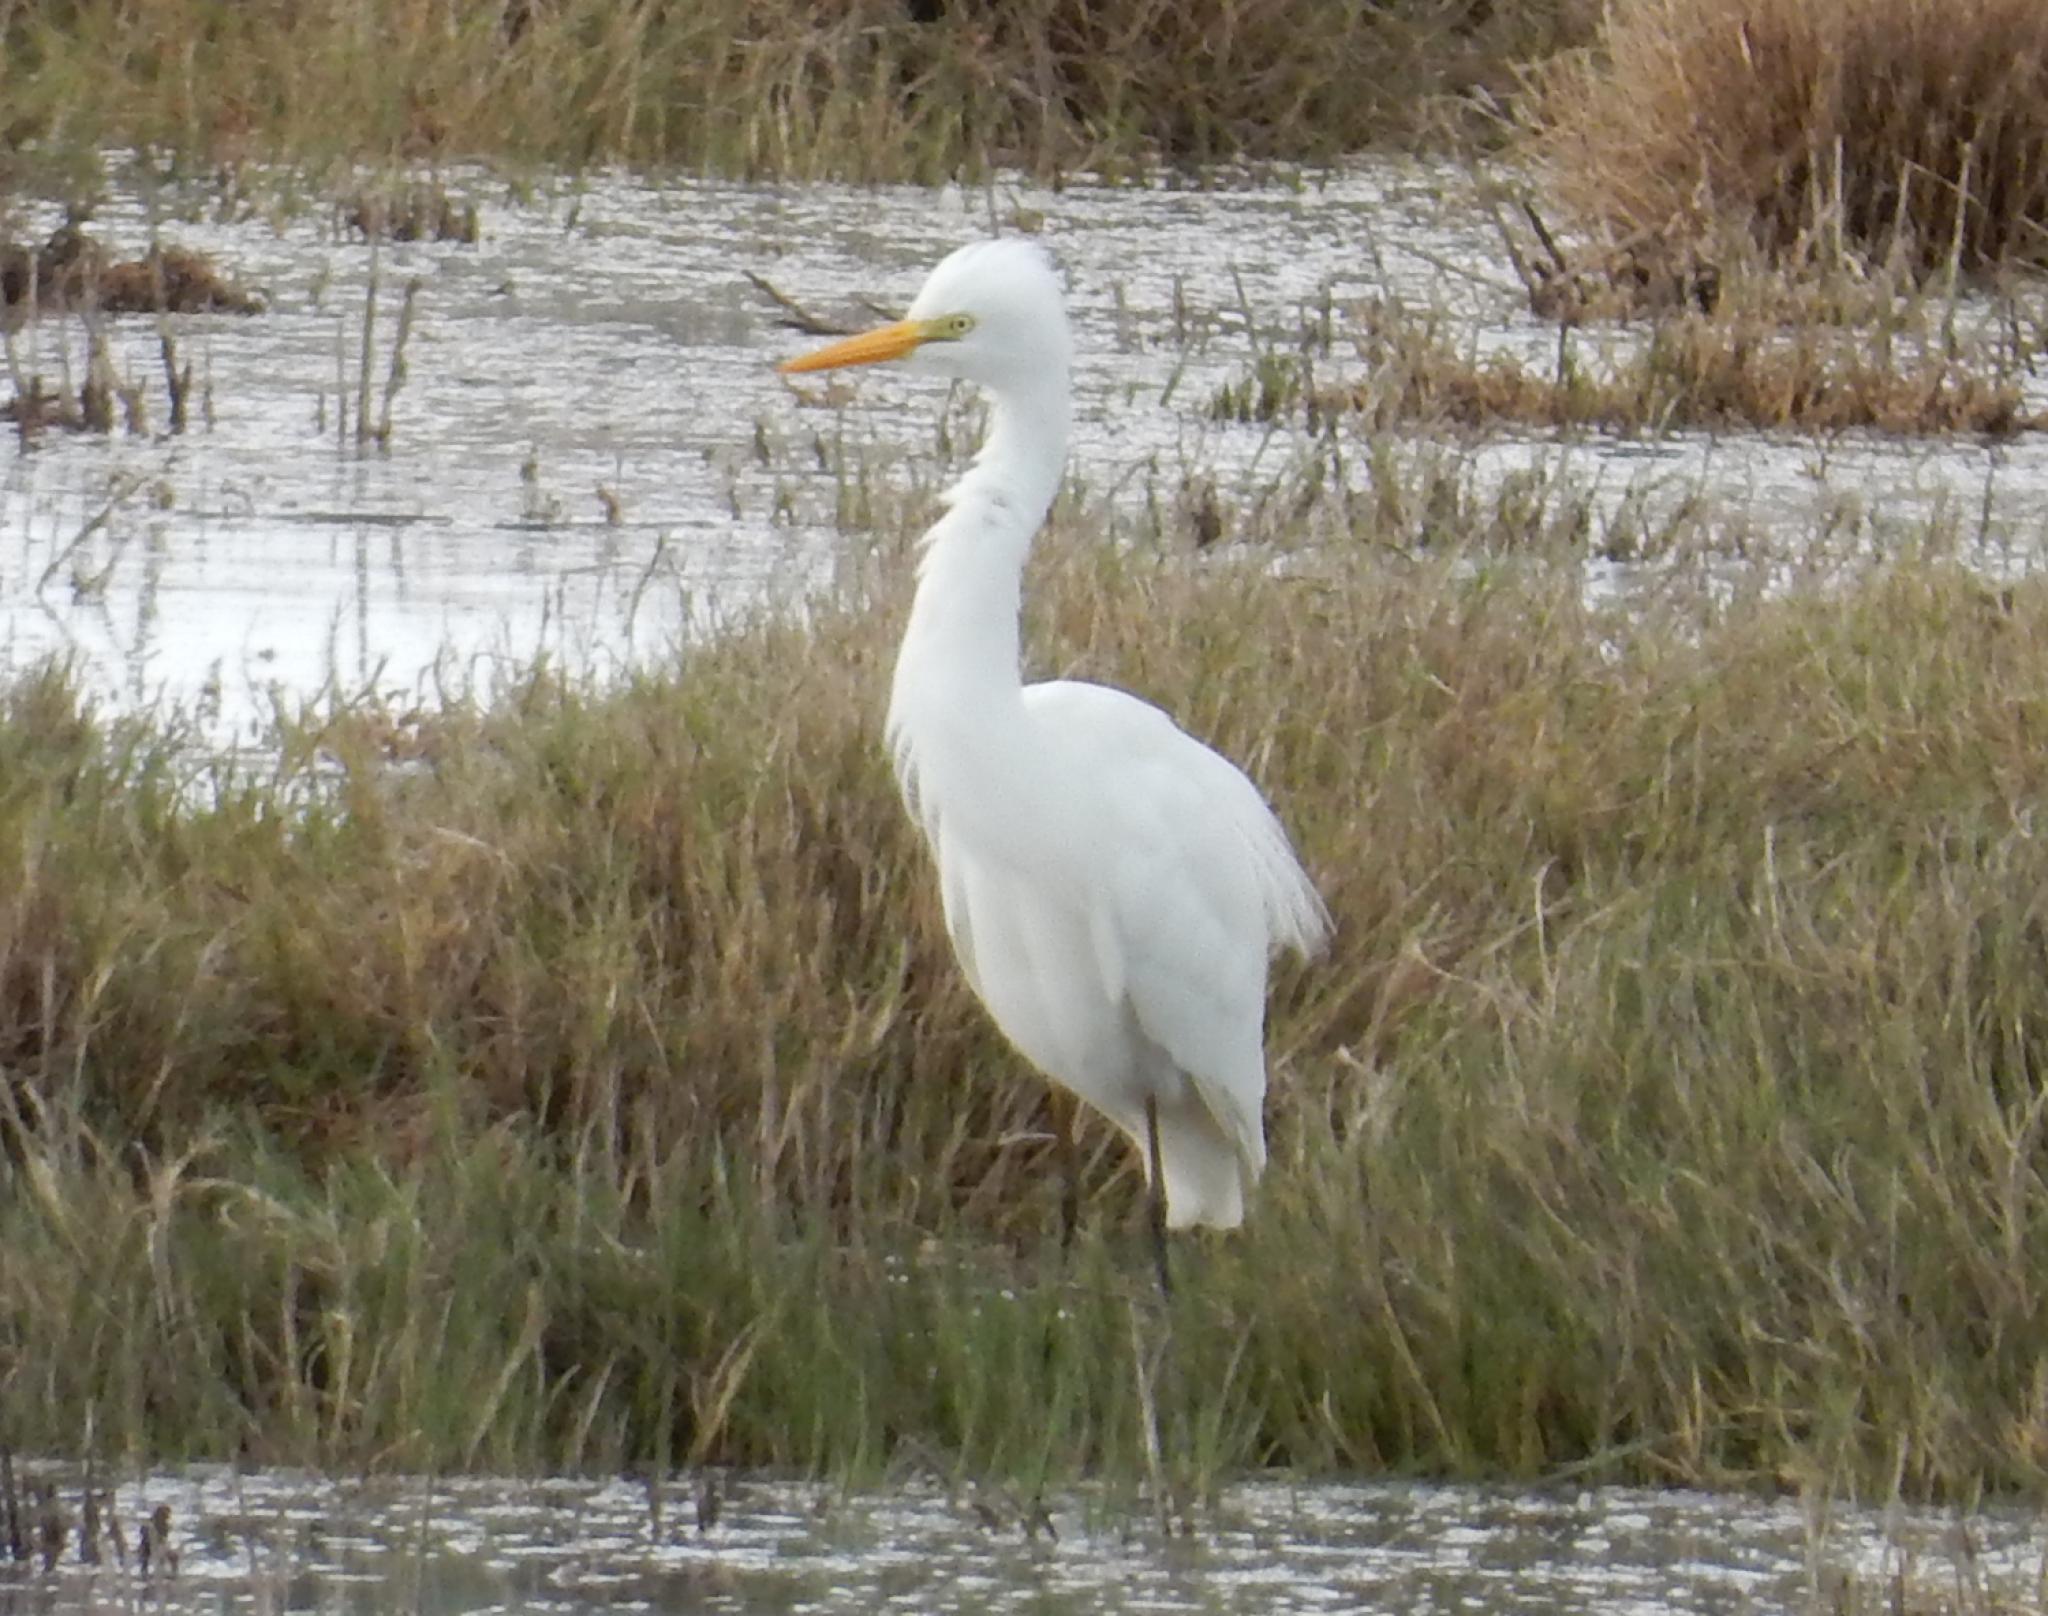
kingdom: Animalia
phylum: Chordata
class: Aves
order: Pelecaniformes
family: Ardeidae
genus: Egretta
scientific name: Egretta intermedia
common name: Intermediate egret
